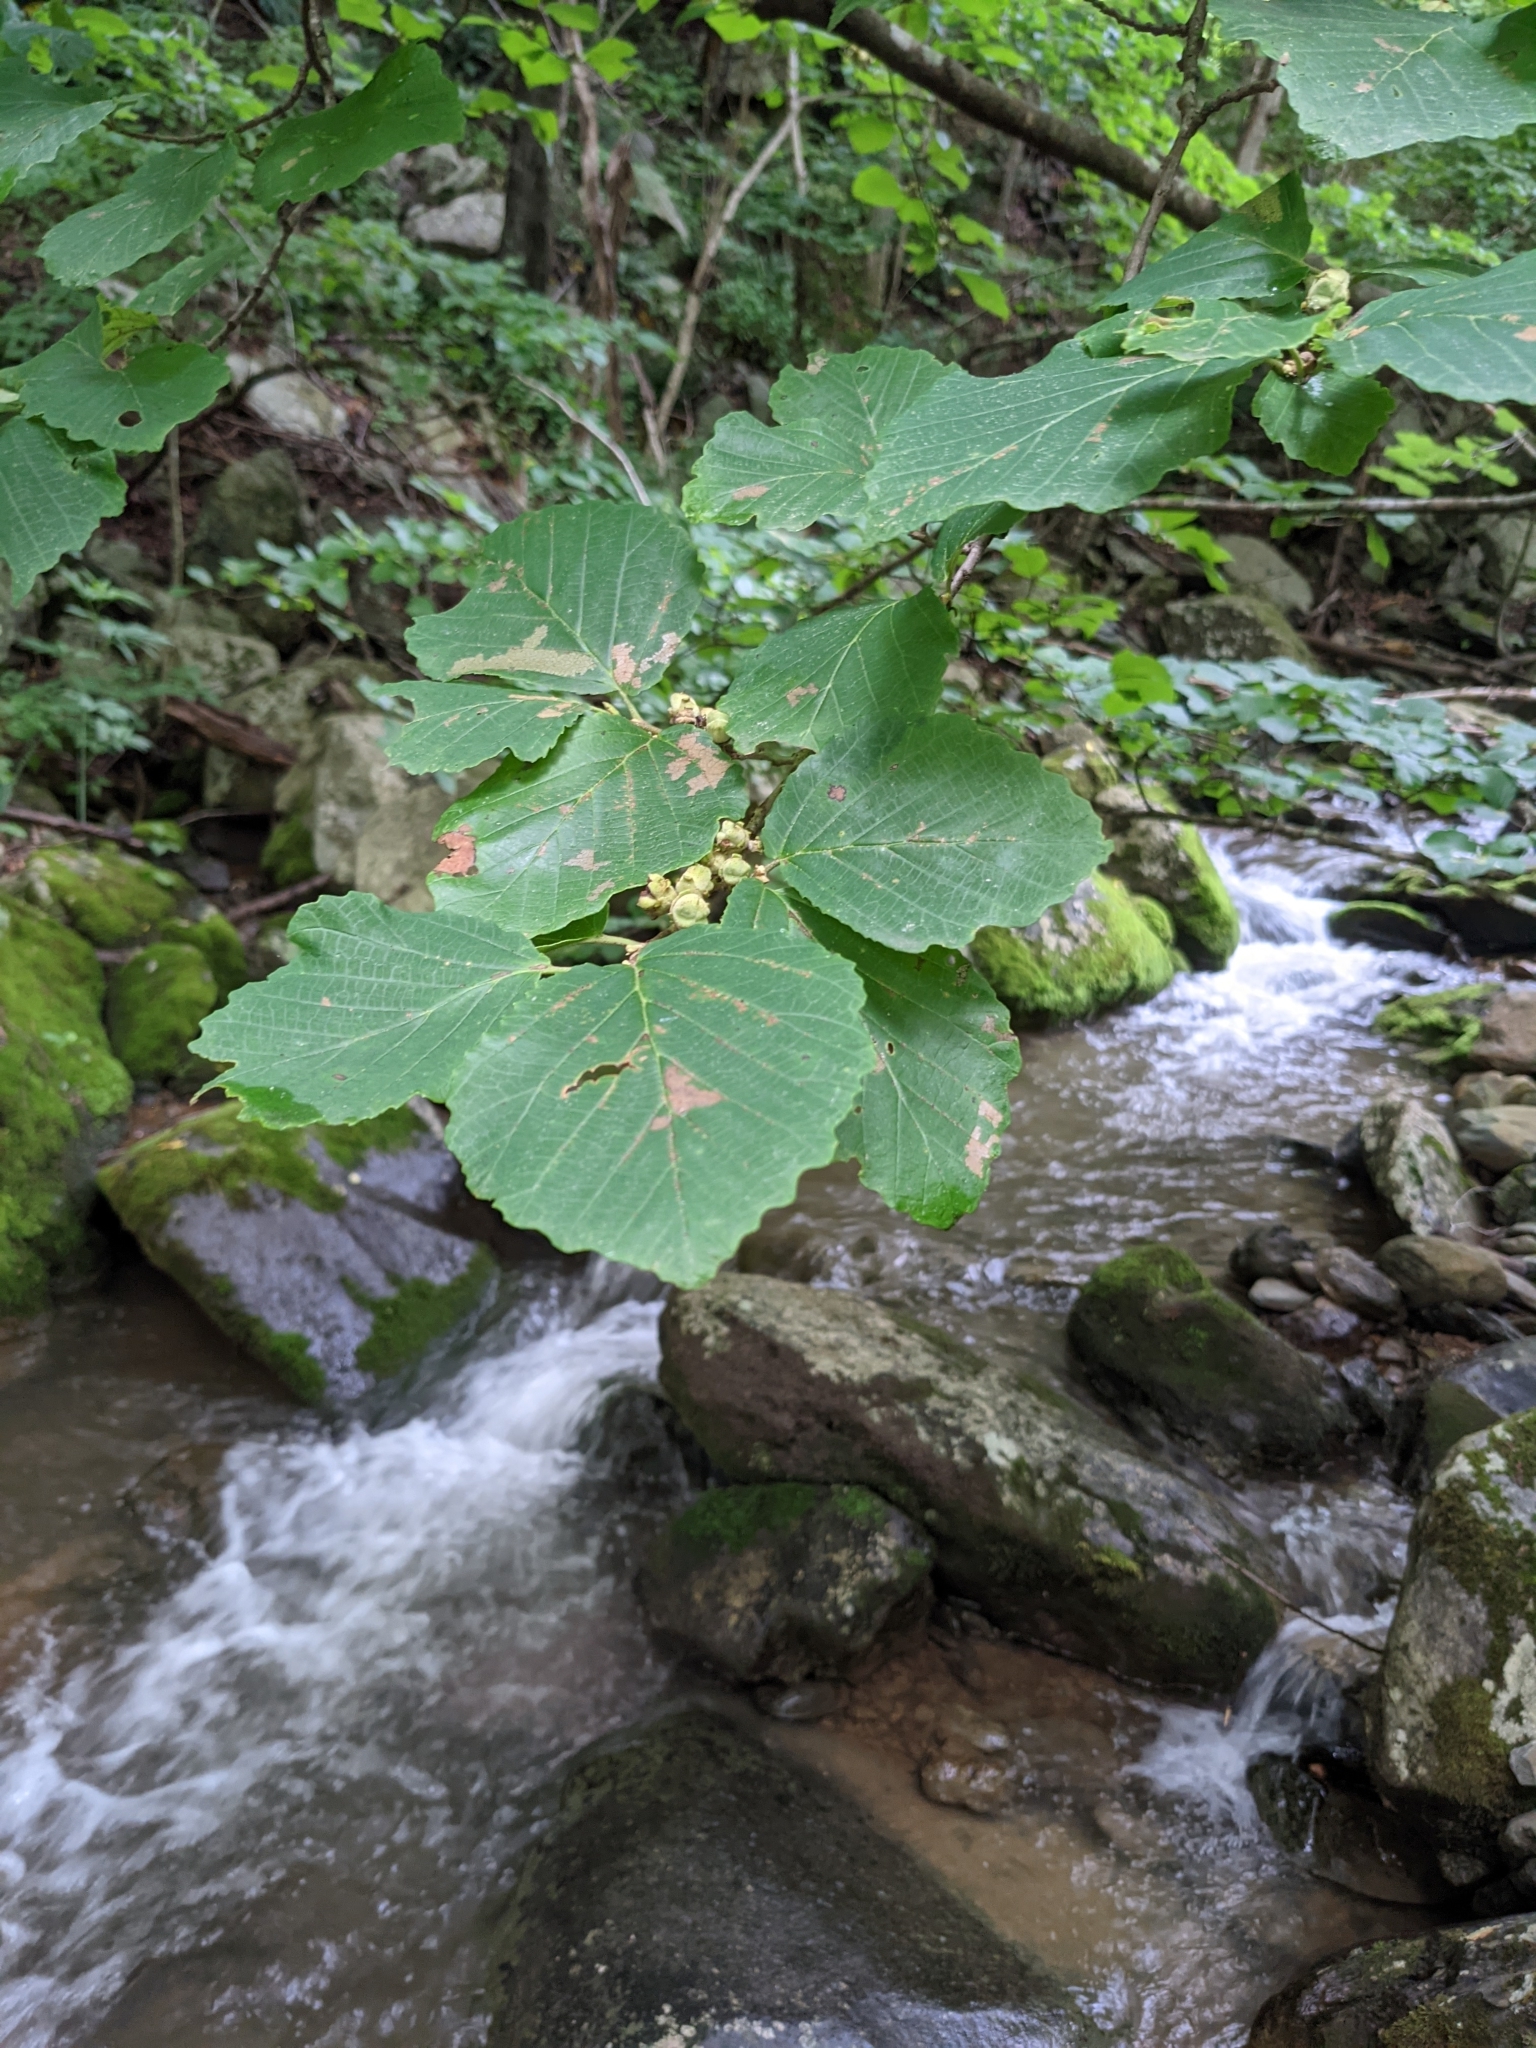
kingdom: Plantae
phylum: Tracheophyta
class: Magnoliopsida
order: Saxifragales
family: Hamamelidaceae
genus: Hamamelis
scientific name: Hamamelis virginiana
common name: Witch-hazel
